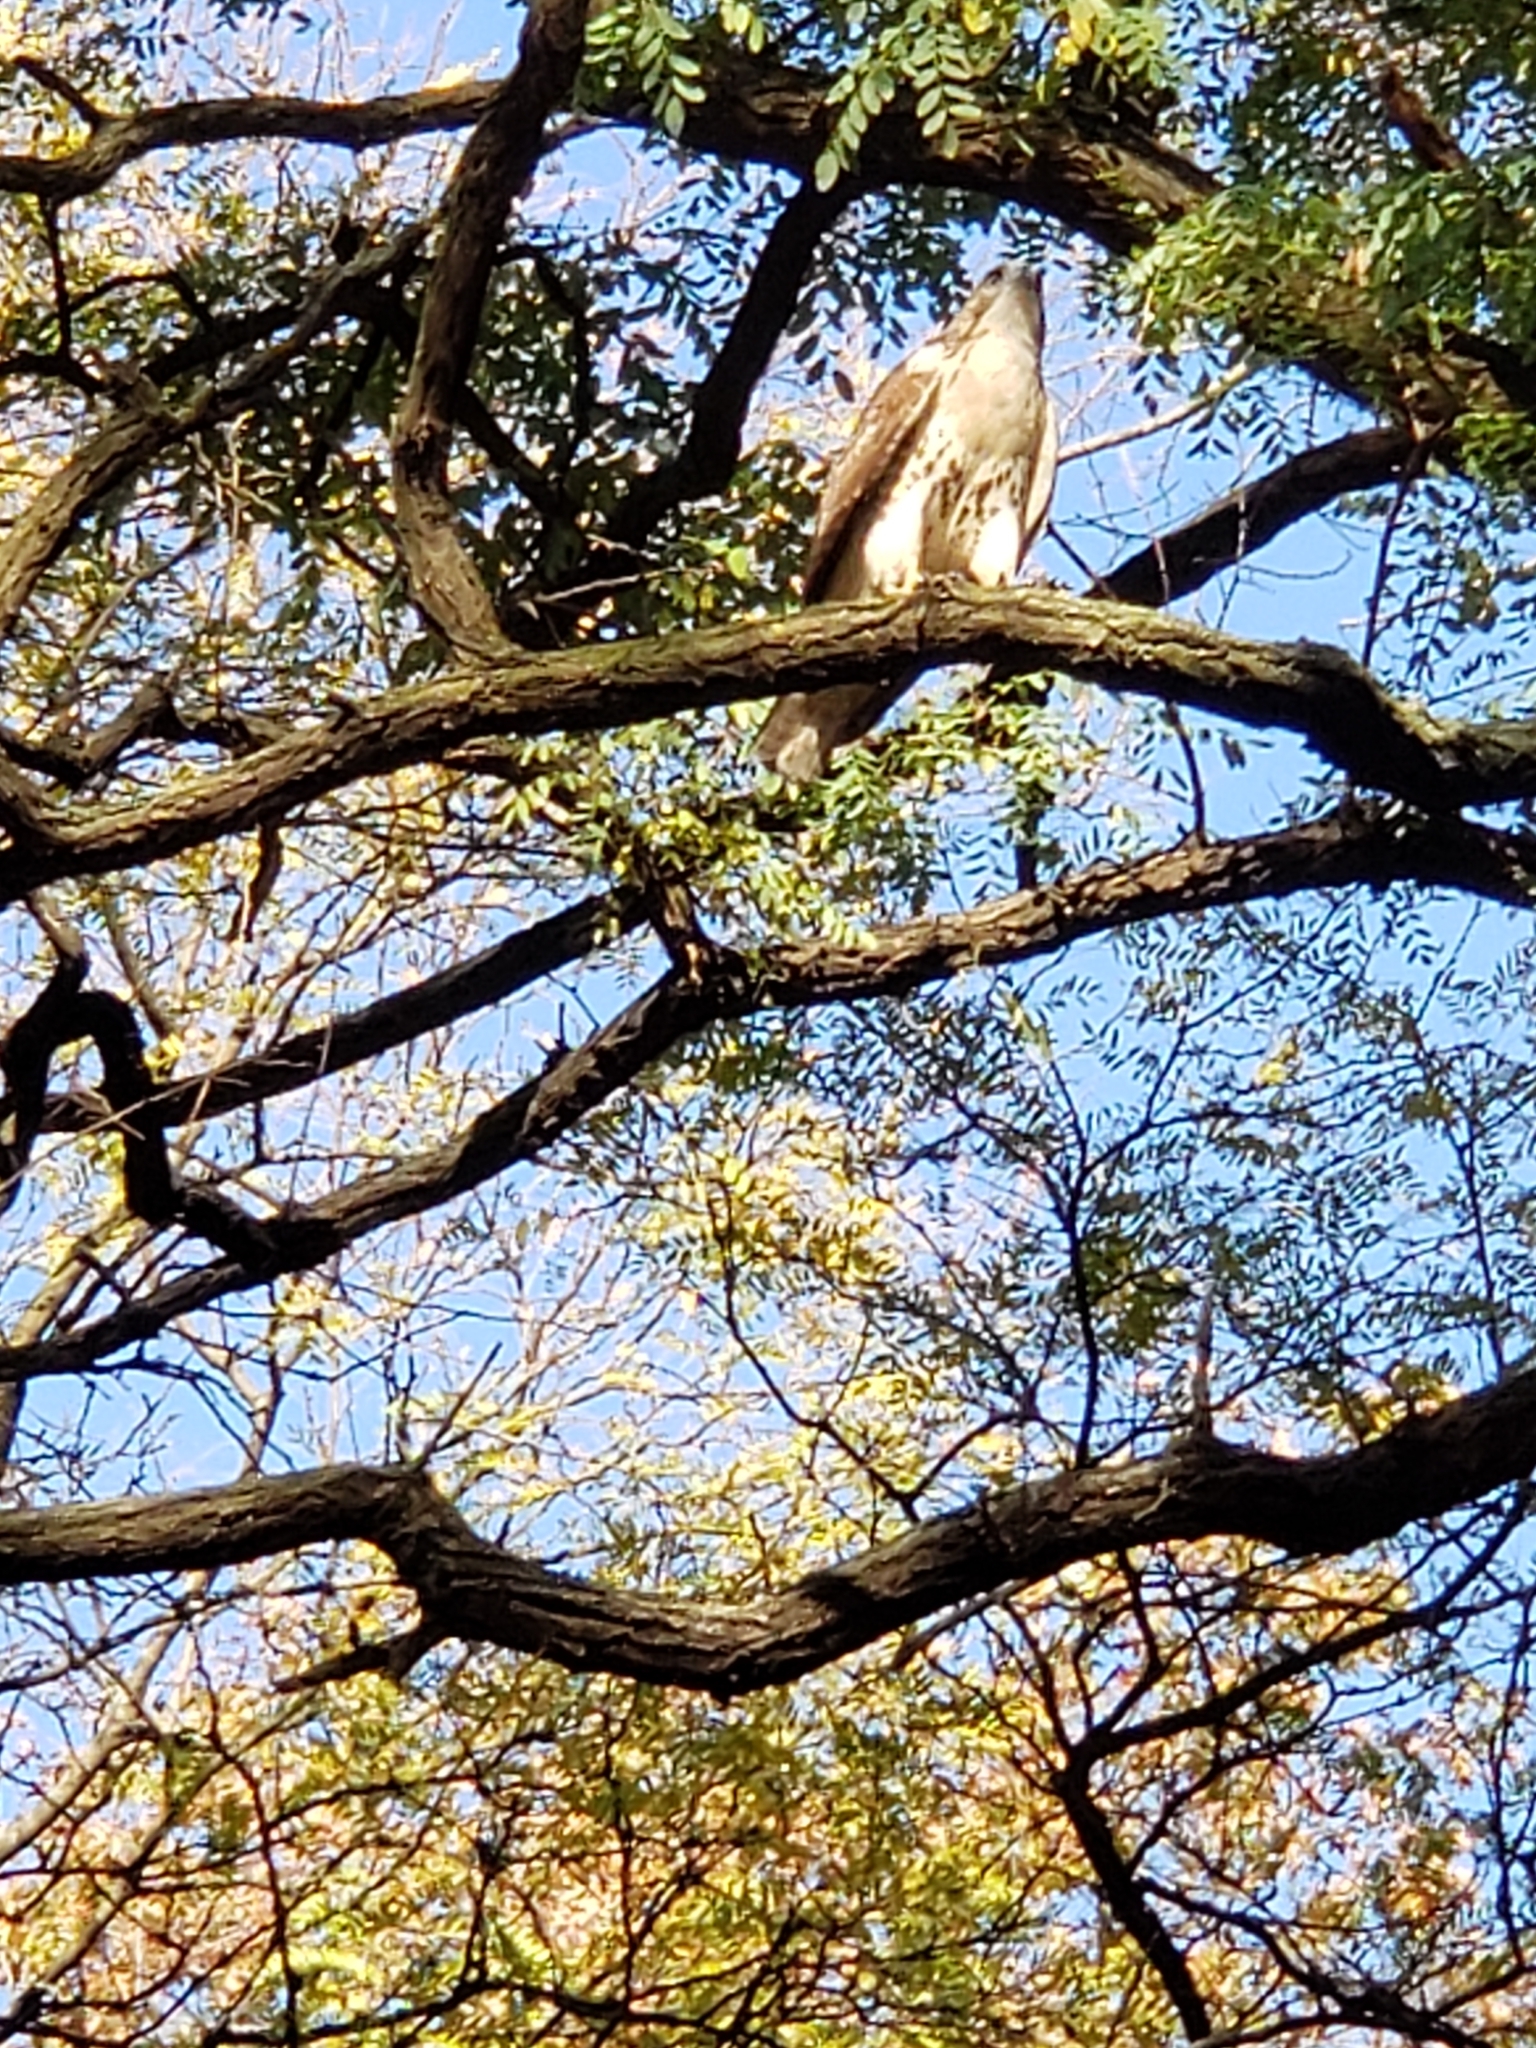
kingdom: Animalia
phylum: Chordata
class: Aves
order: Accipitriformes
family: Accipitridae
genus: Buteo
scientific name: Buteo jamaicensis
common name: Red-tailed hawk
